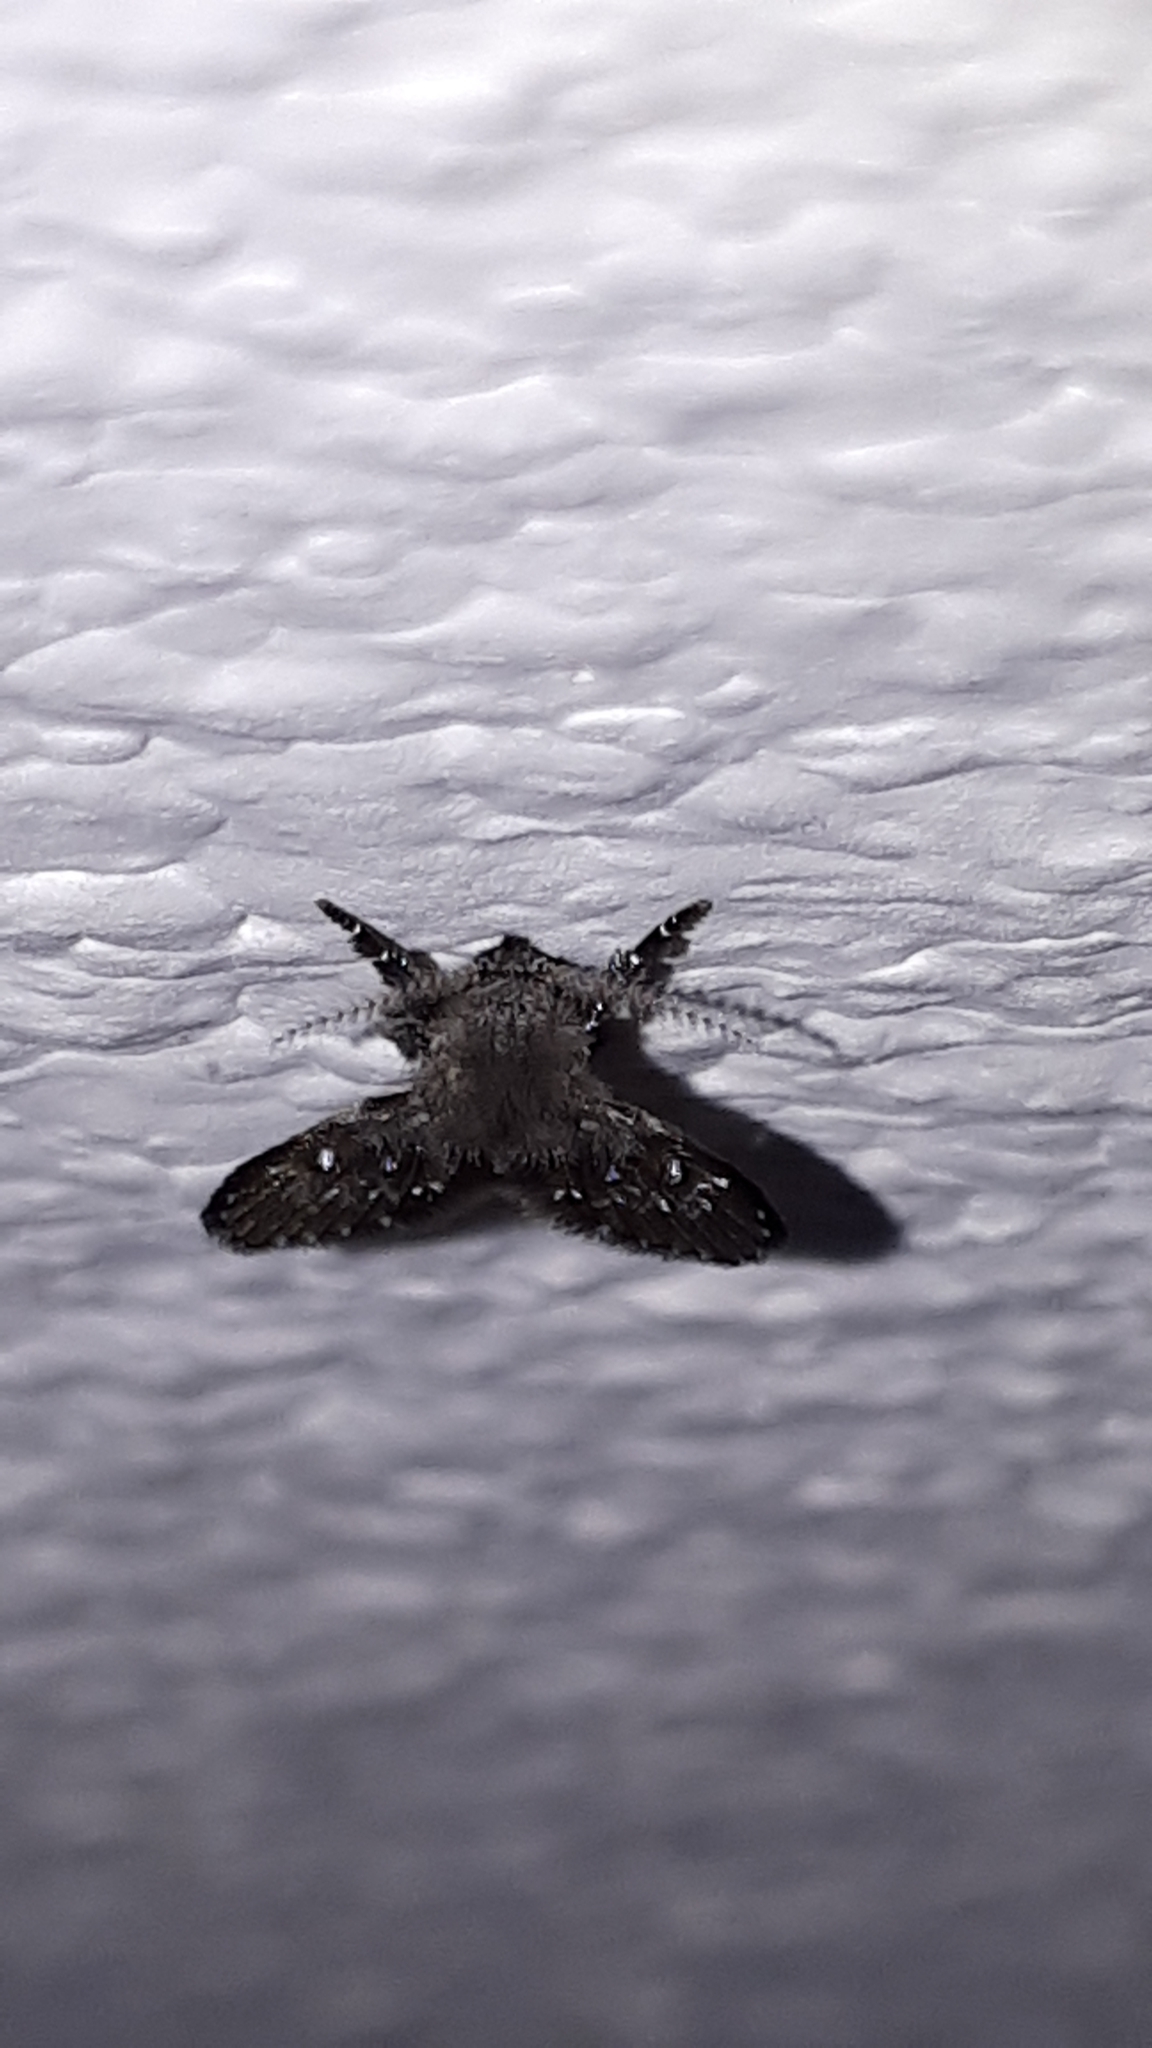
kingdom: Animalia
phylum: Arthropoda
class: Insecta
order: Diptera
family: Psychodidae
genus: Clogmia
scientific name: Clogmia albipunctatus
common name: White-spotted moth fly
